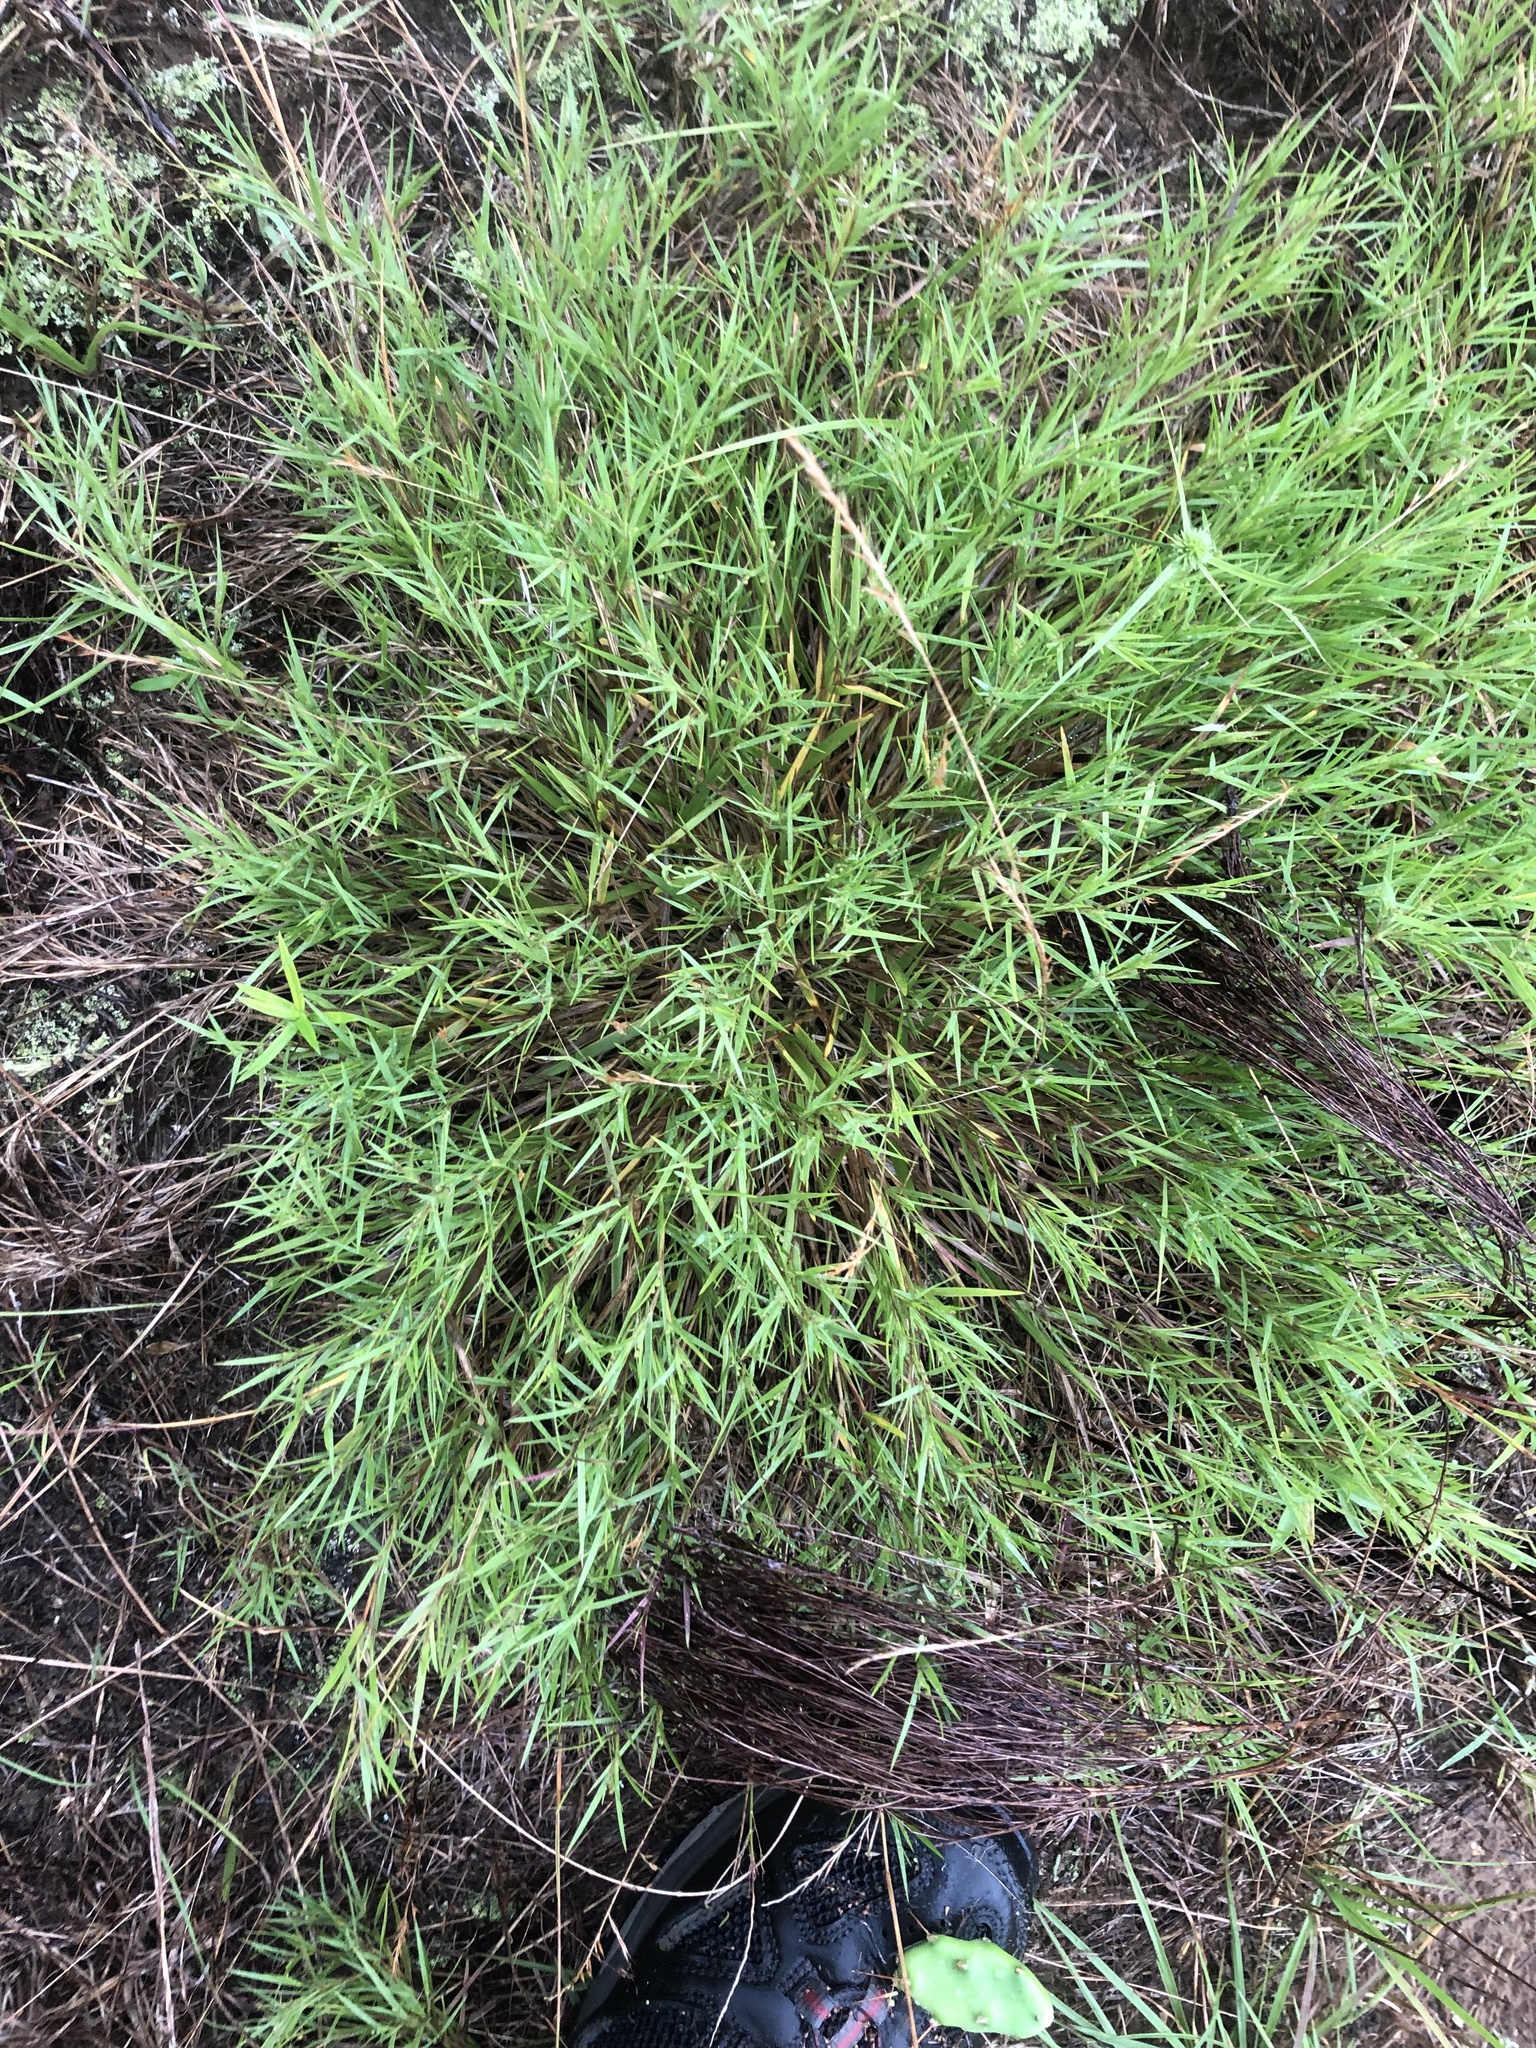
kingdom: Plantae
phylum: Tracheophyta
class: Liliopsida
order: Poales
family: Poaceae
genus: Dichanthelium
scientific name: Dichanthelium aciculare
